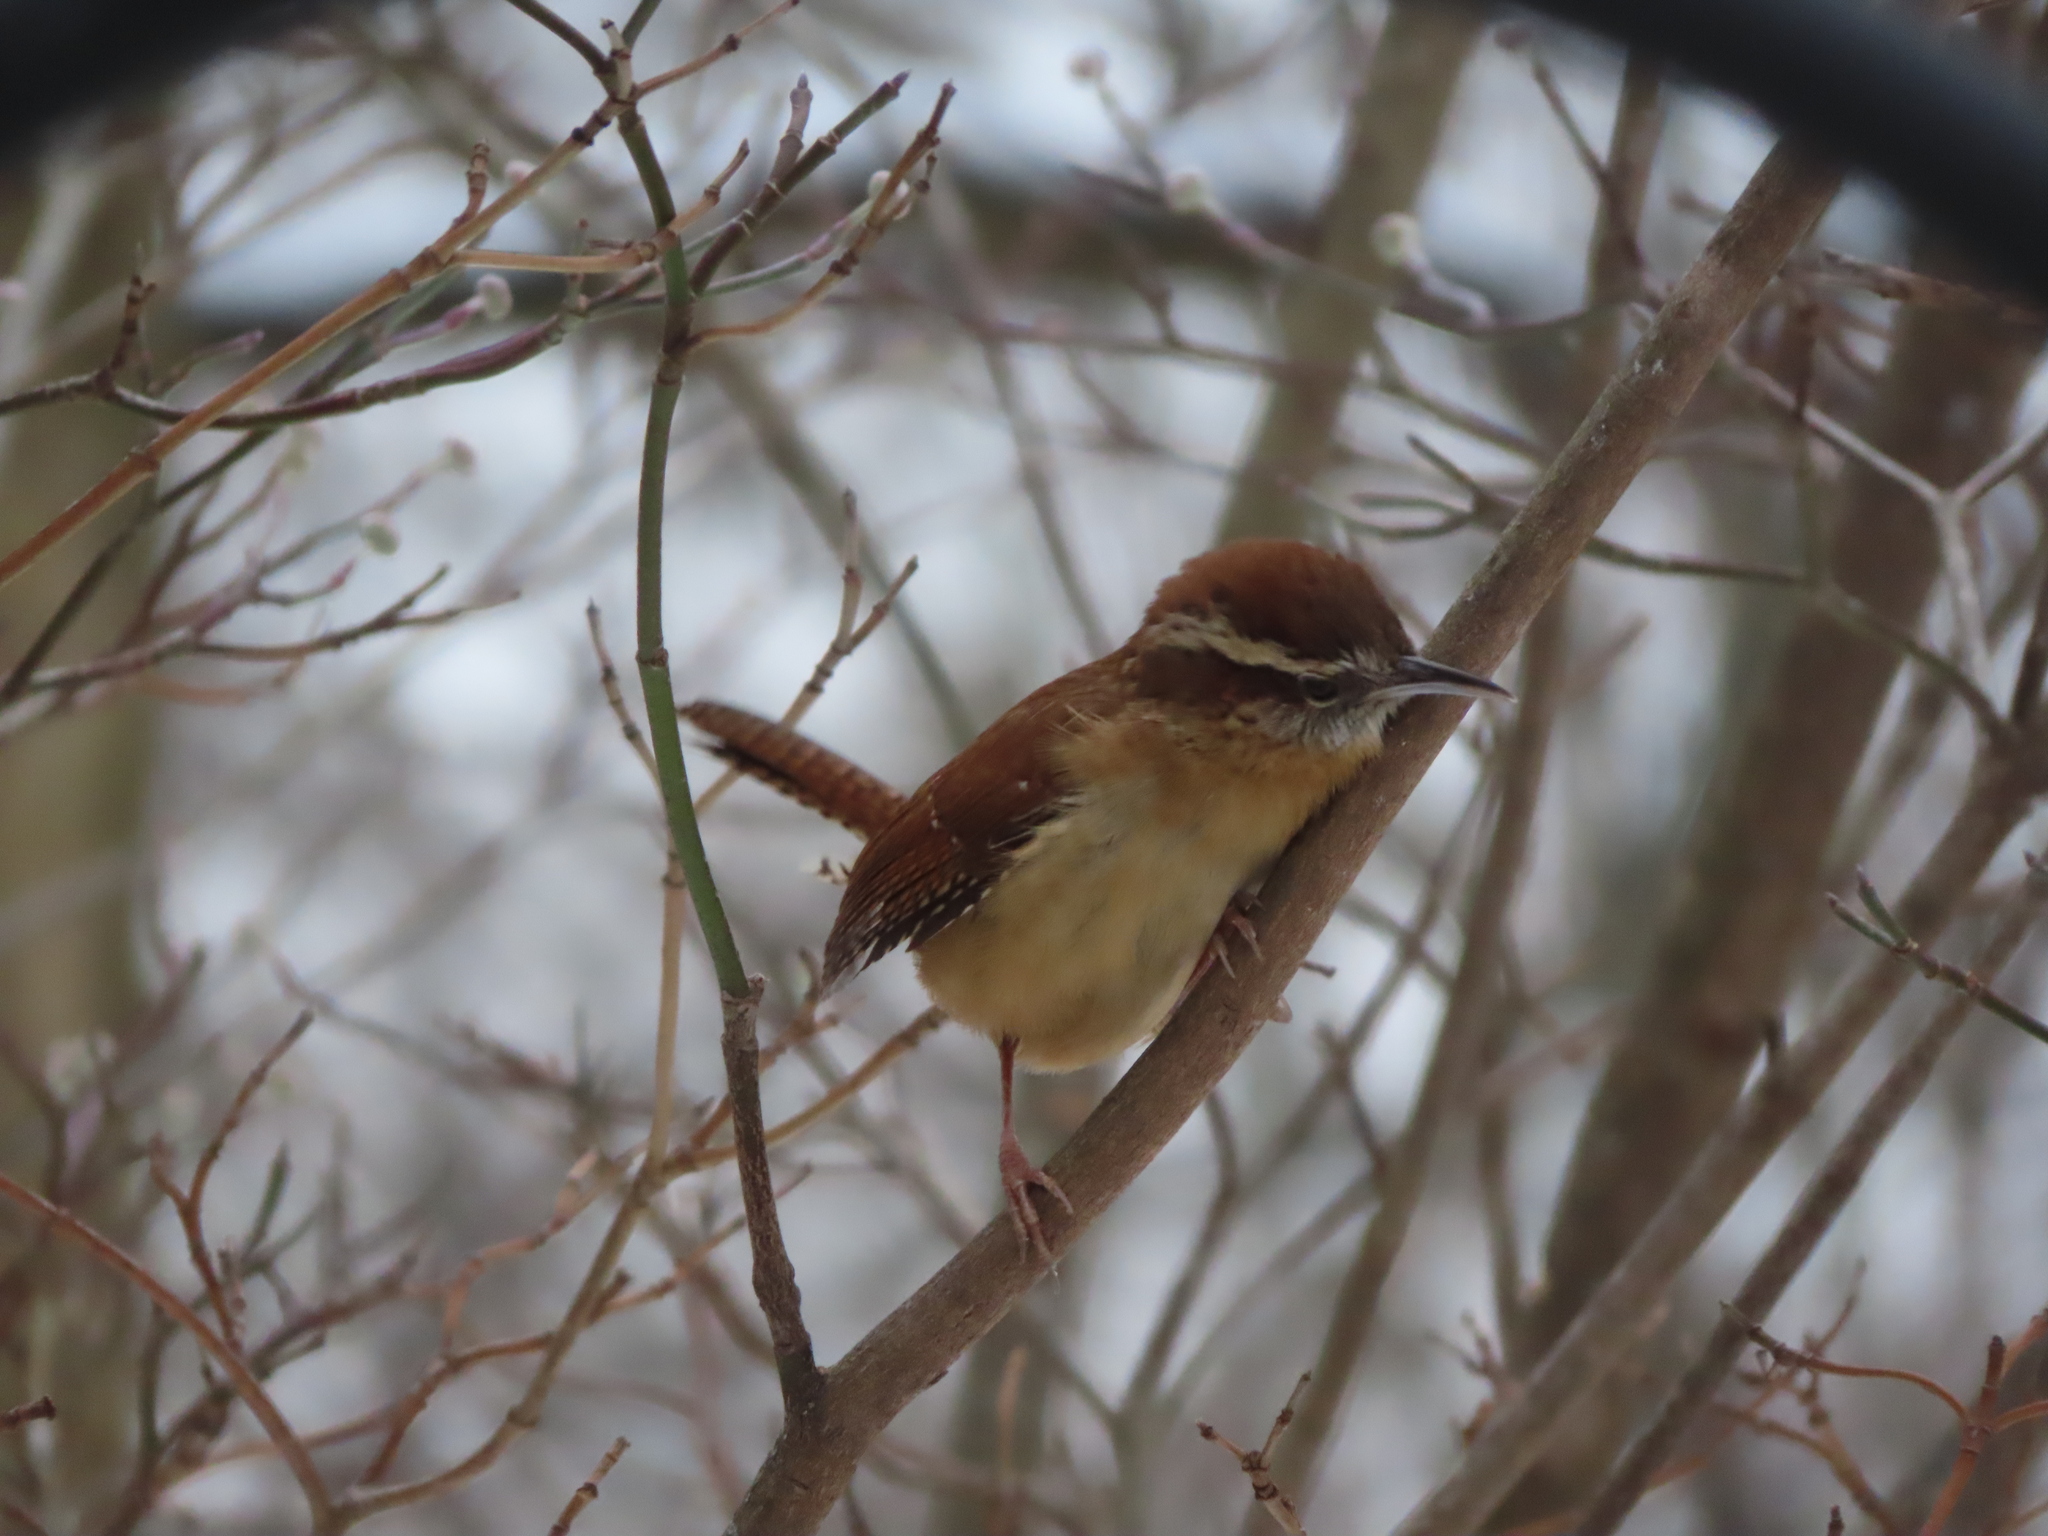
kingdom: Animalia
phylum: Chordata
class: Aves
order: Passeriformes
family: Troglodytidae
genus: Thryothorus
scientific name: Thryothorus ludovicianus
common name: Carolina wren
